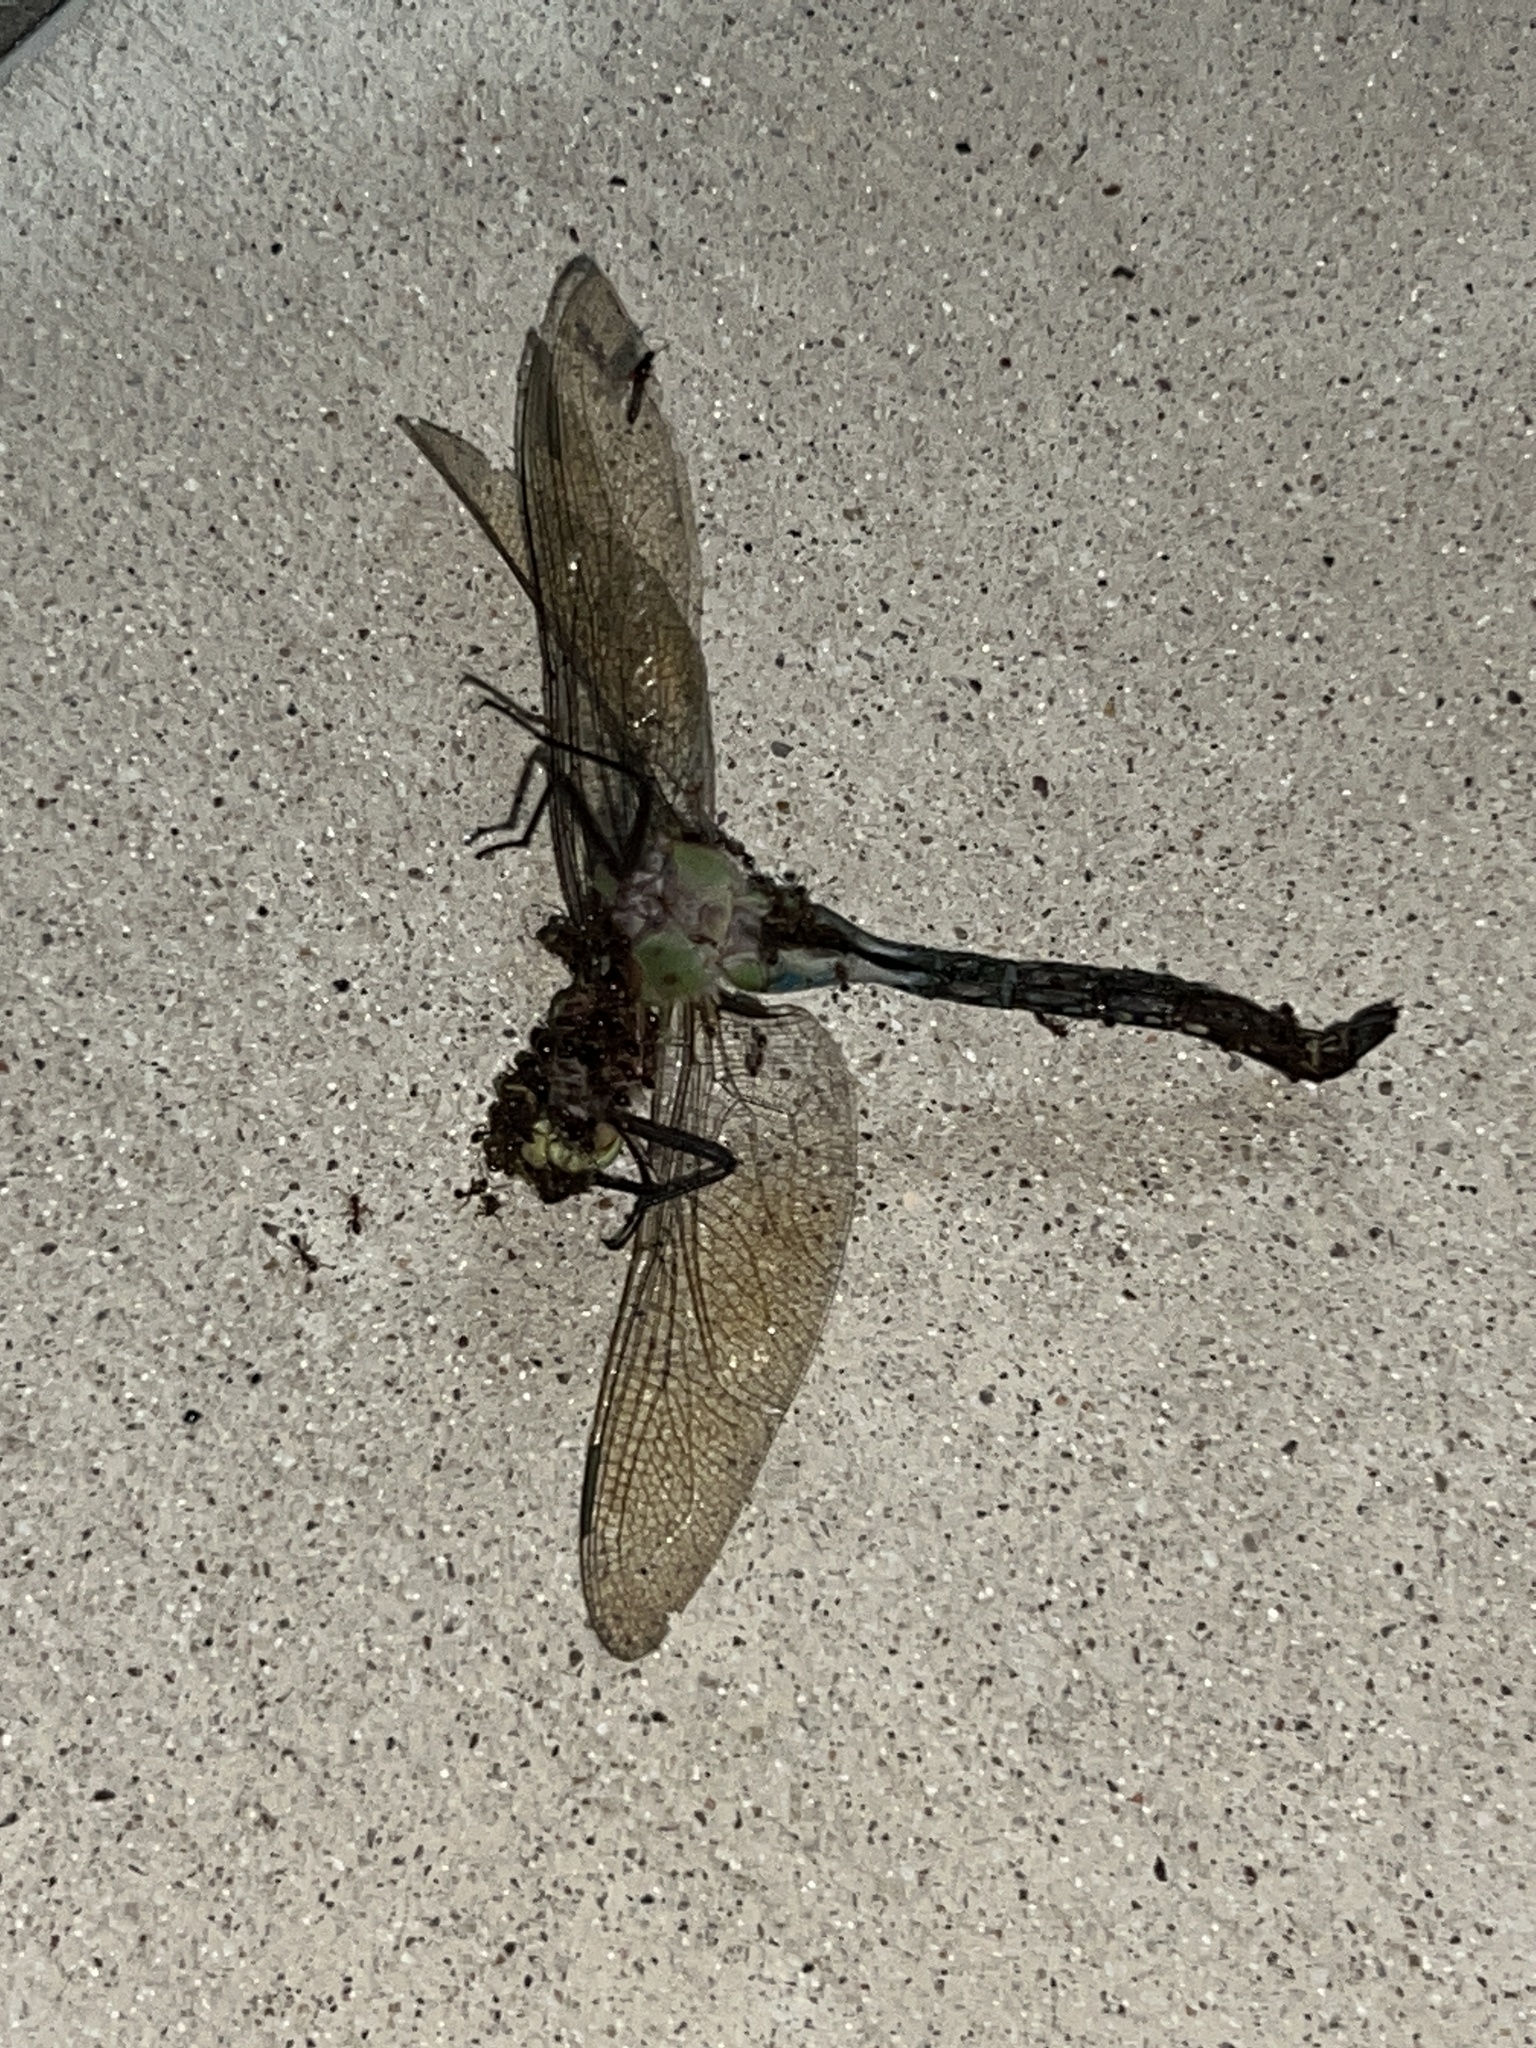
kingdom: Animalia
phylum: Arthropoda
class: Insecta
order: Odonata
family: Aeshnidae
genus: Anax
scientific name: Anax junius
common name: Common green darner
